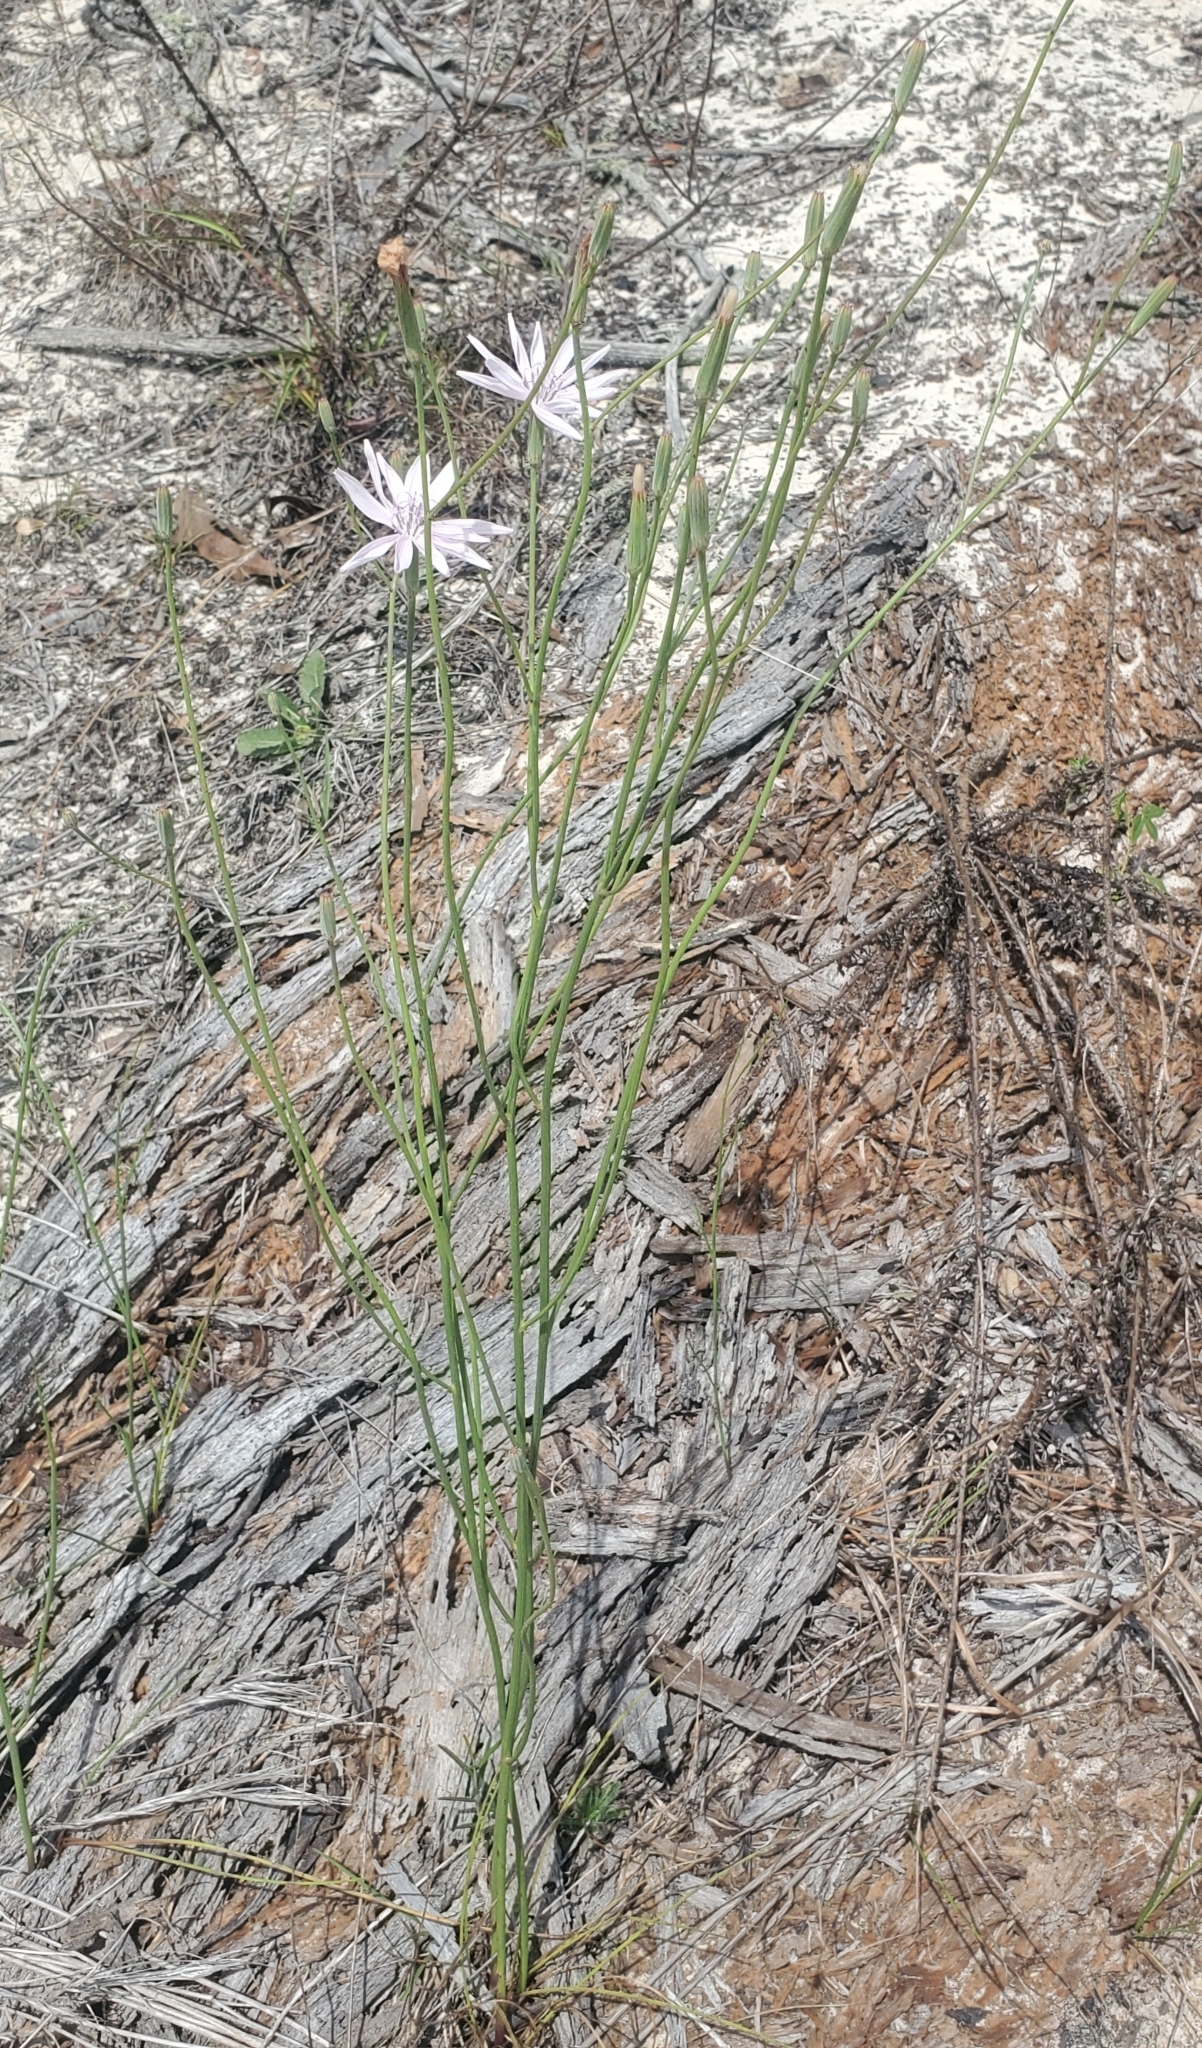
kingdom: Plantae
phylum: Tracheophyta
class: Magnoliopsida
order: Asterales
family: Asteraceae
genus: Lygodesmia
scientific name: Lygodesmia aphylla
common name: Rose-rush
